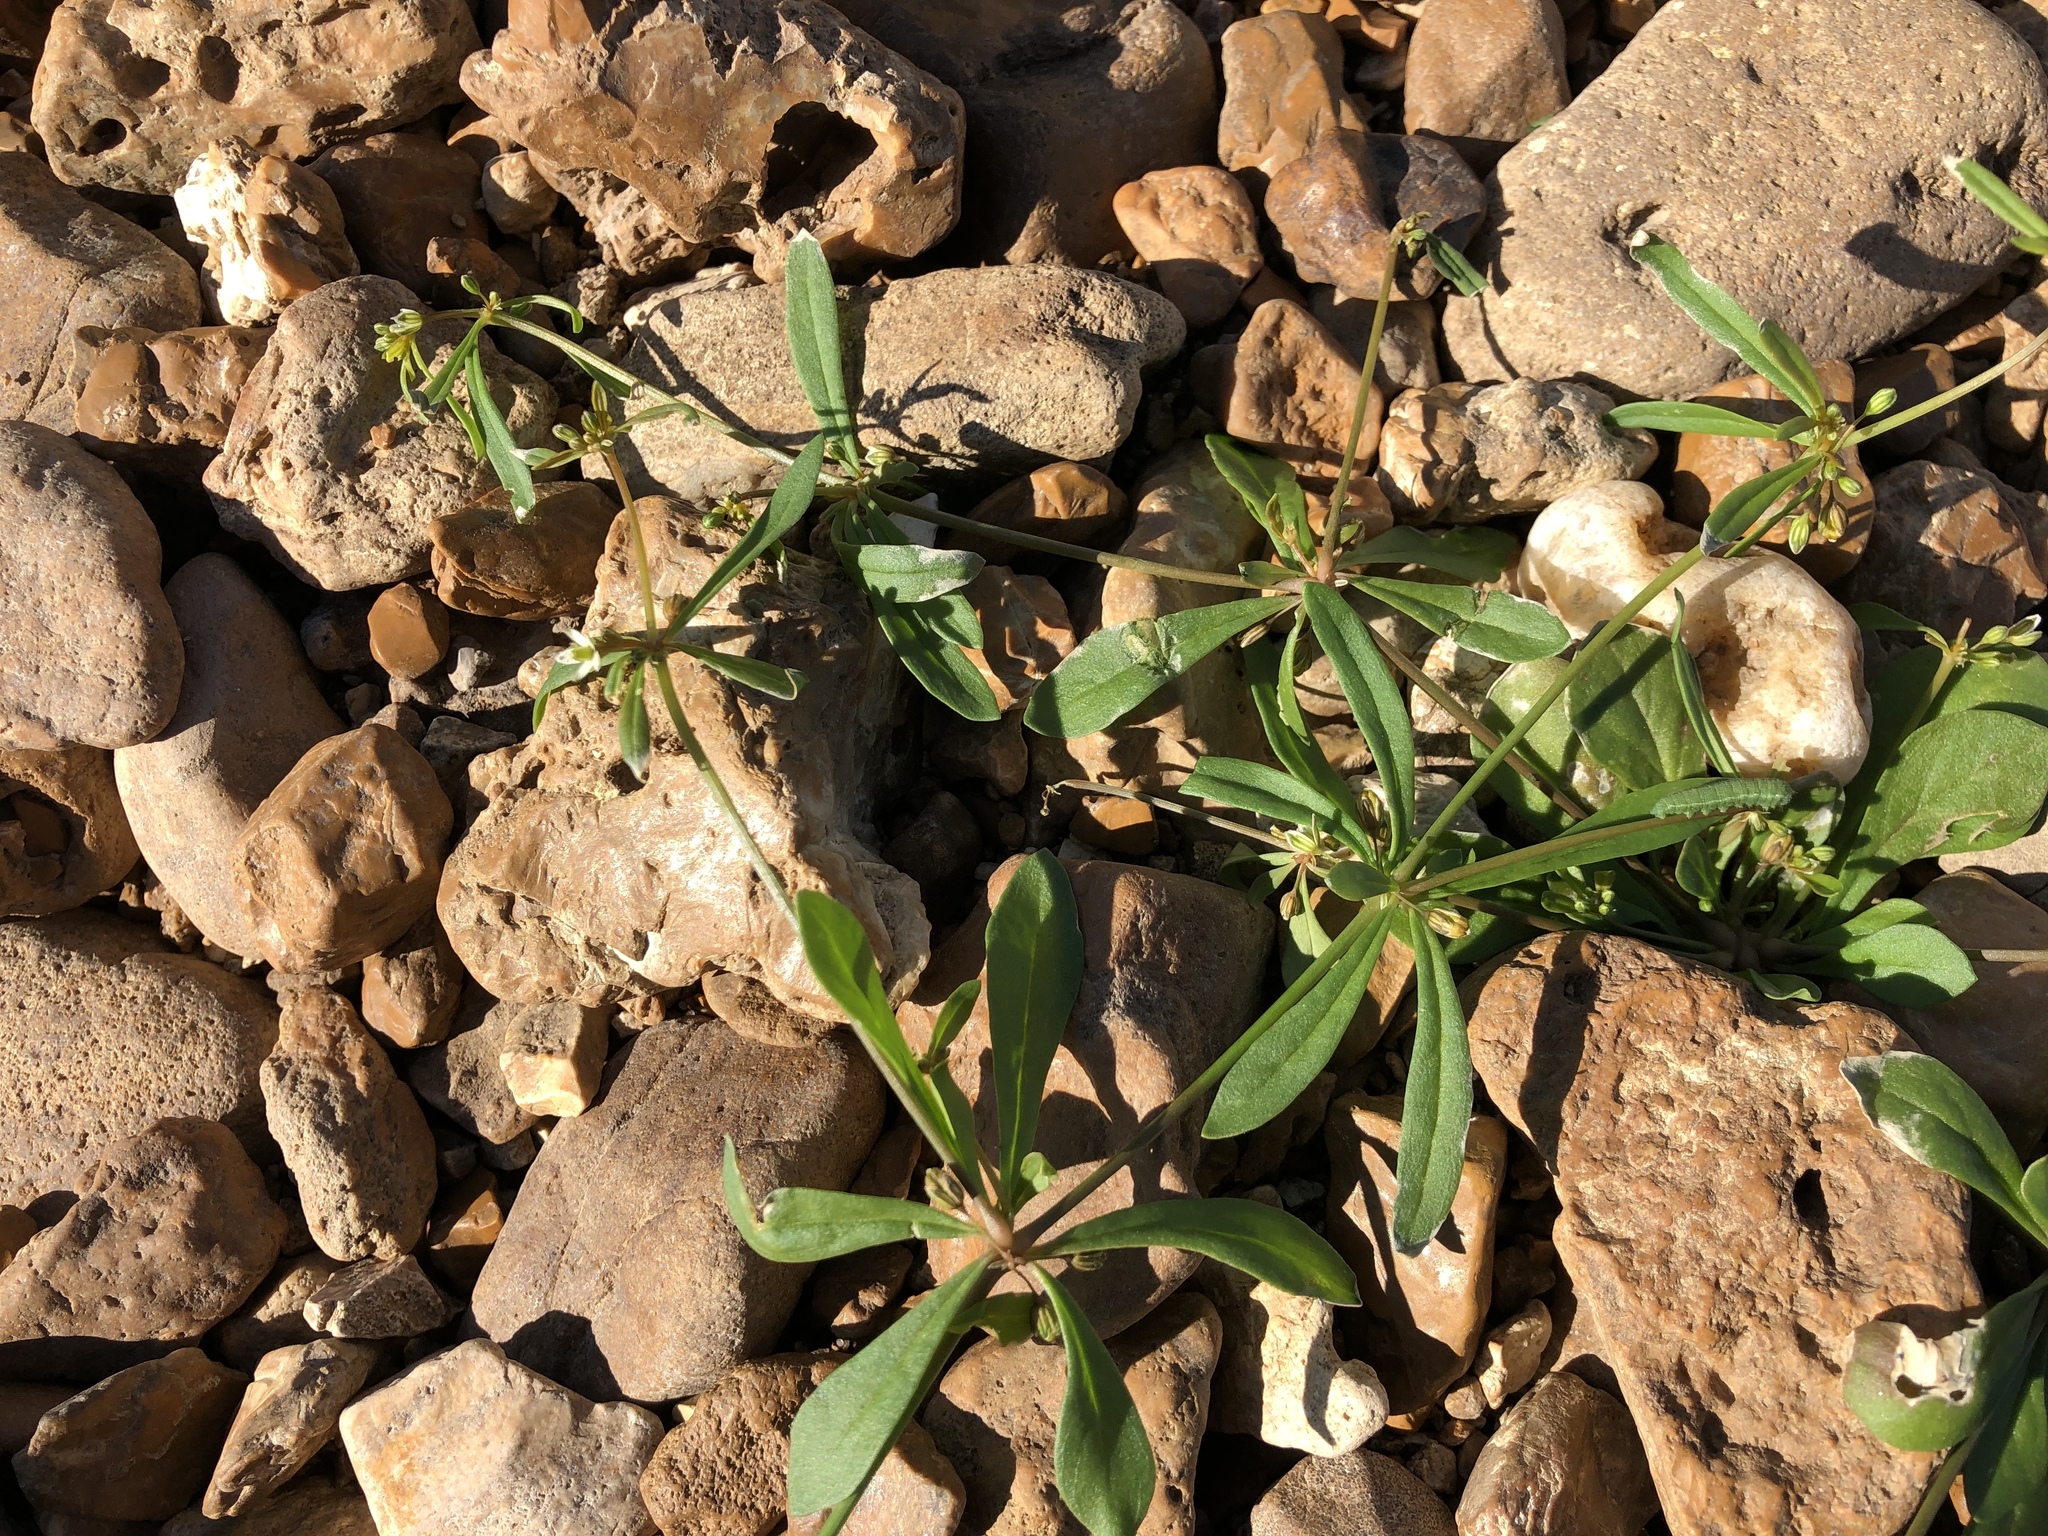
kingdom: Plantae
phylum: Tracheophyta
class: Magnoliopsida
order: Caryophyllales
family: Molluginaceae
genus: Mollugo
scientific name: Mollugo verticillata
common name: Green carpetweed
